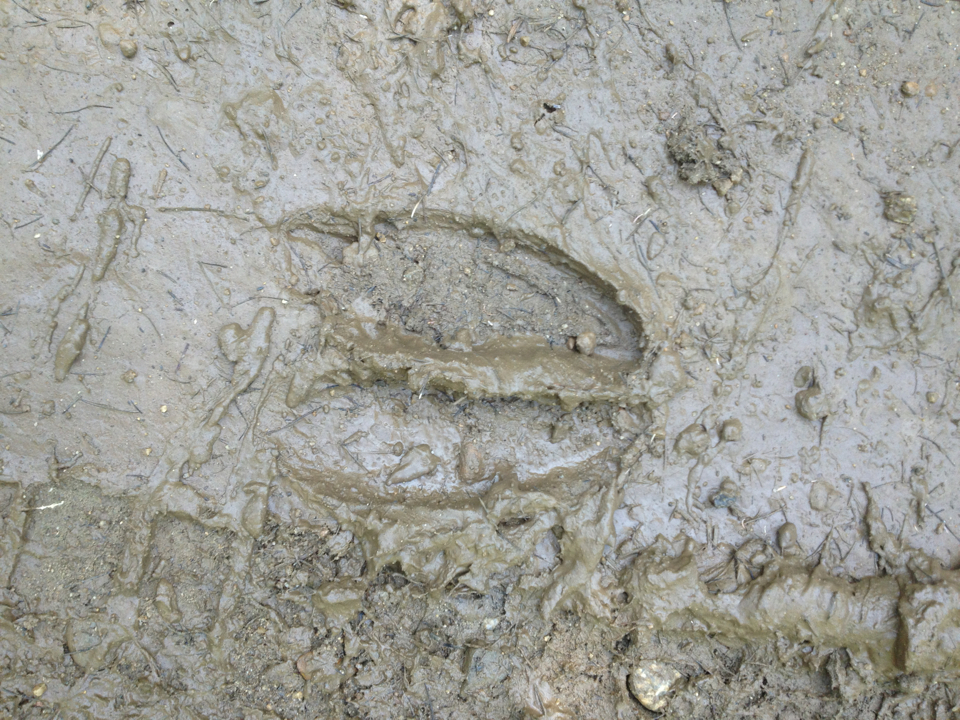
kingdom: Animalia
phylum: Chordata
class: Mammalia
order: Artiodactyla
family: Cervidae
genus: Alces
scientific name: Alces alces
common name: Moose
